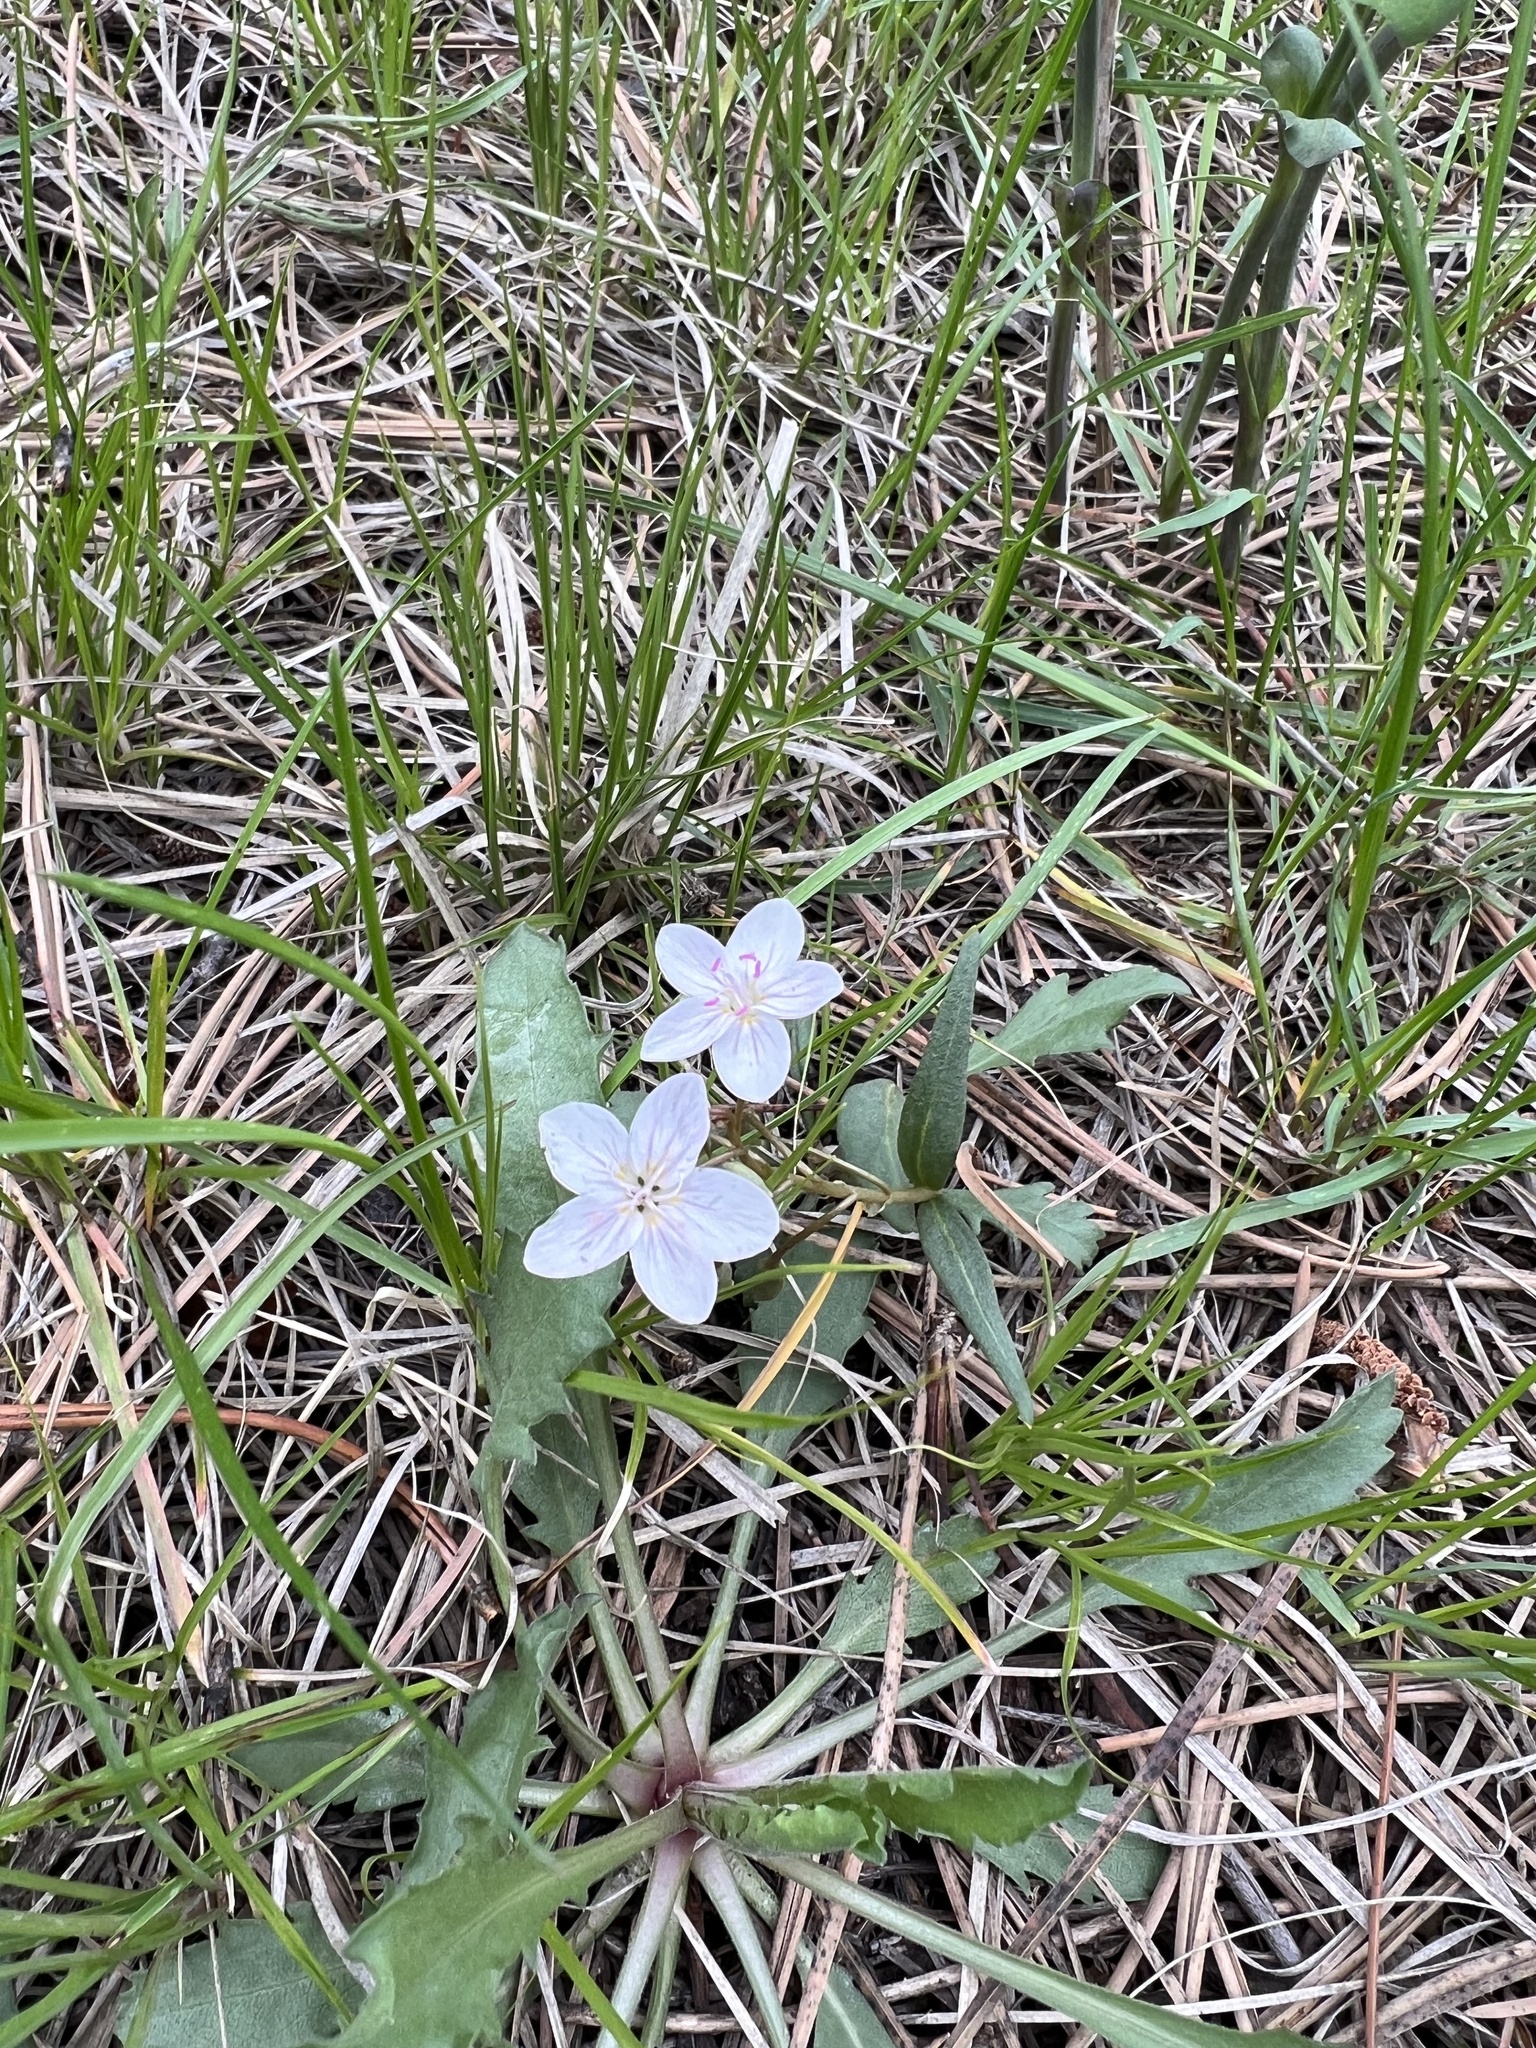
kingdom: Plantae
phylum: Tracheophyta
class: Magnoliopsida
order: Caryophyllales
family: Montiaceae
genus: Claytonia
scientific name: Claytonia rosea
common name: Rocky mountain spring-beauty
